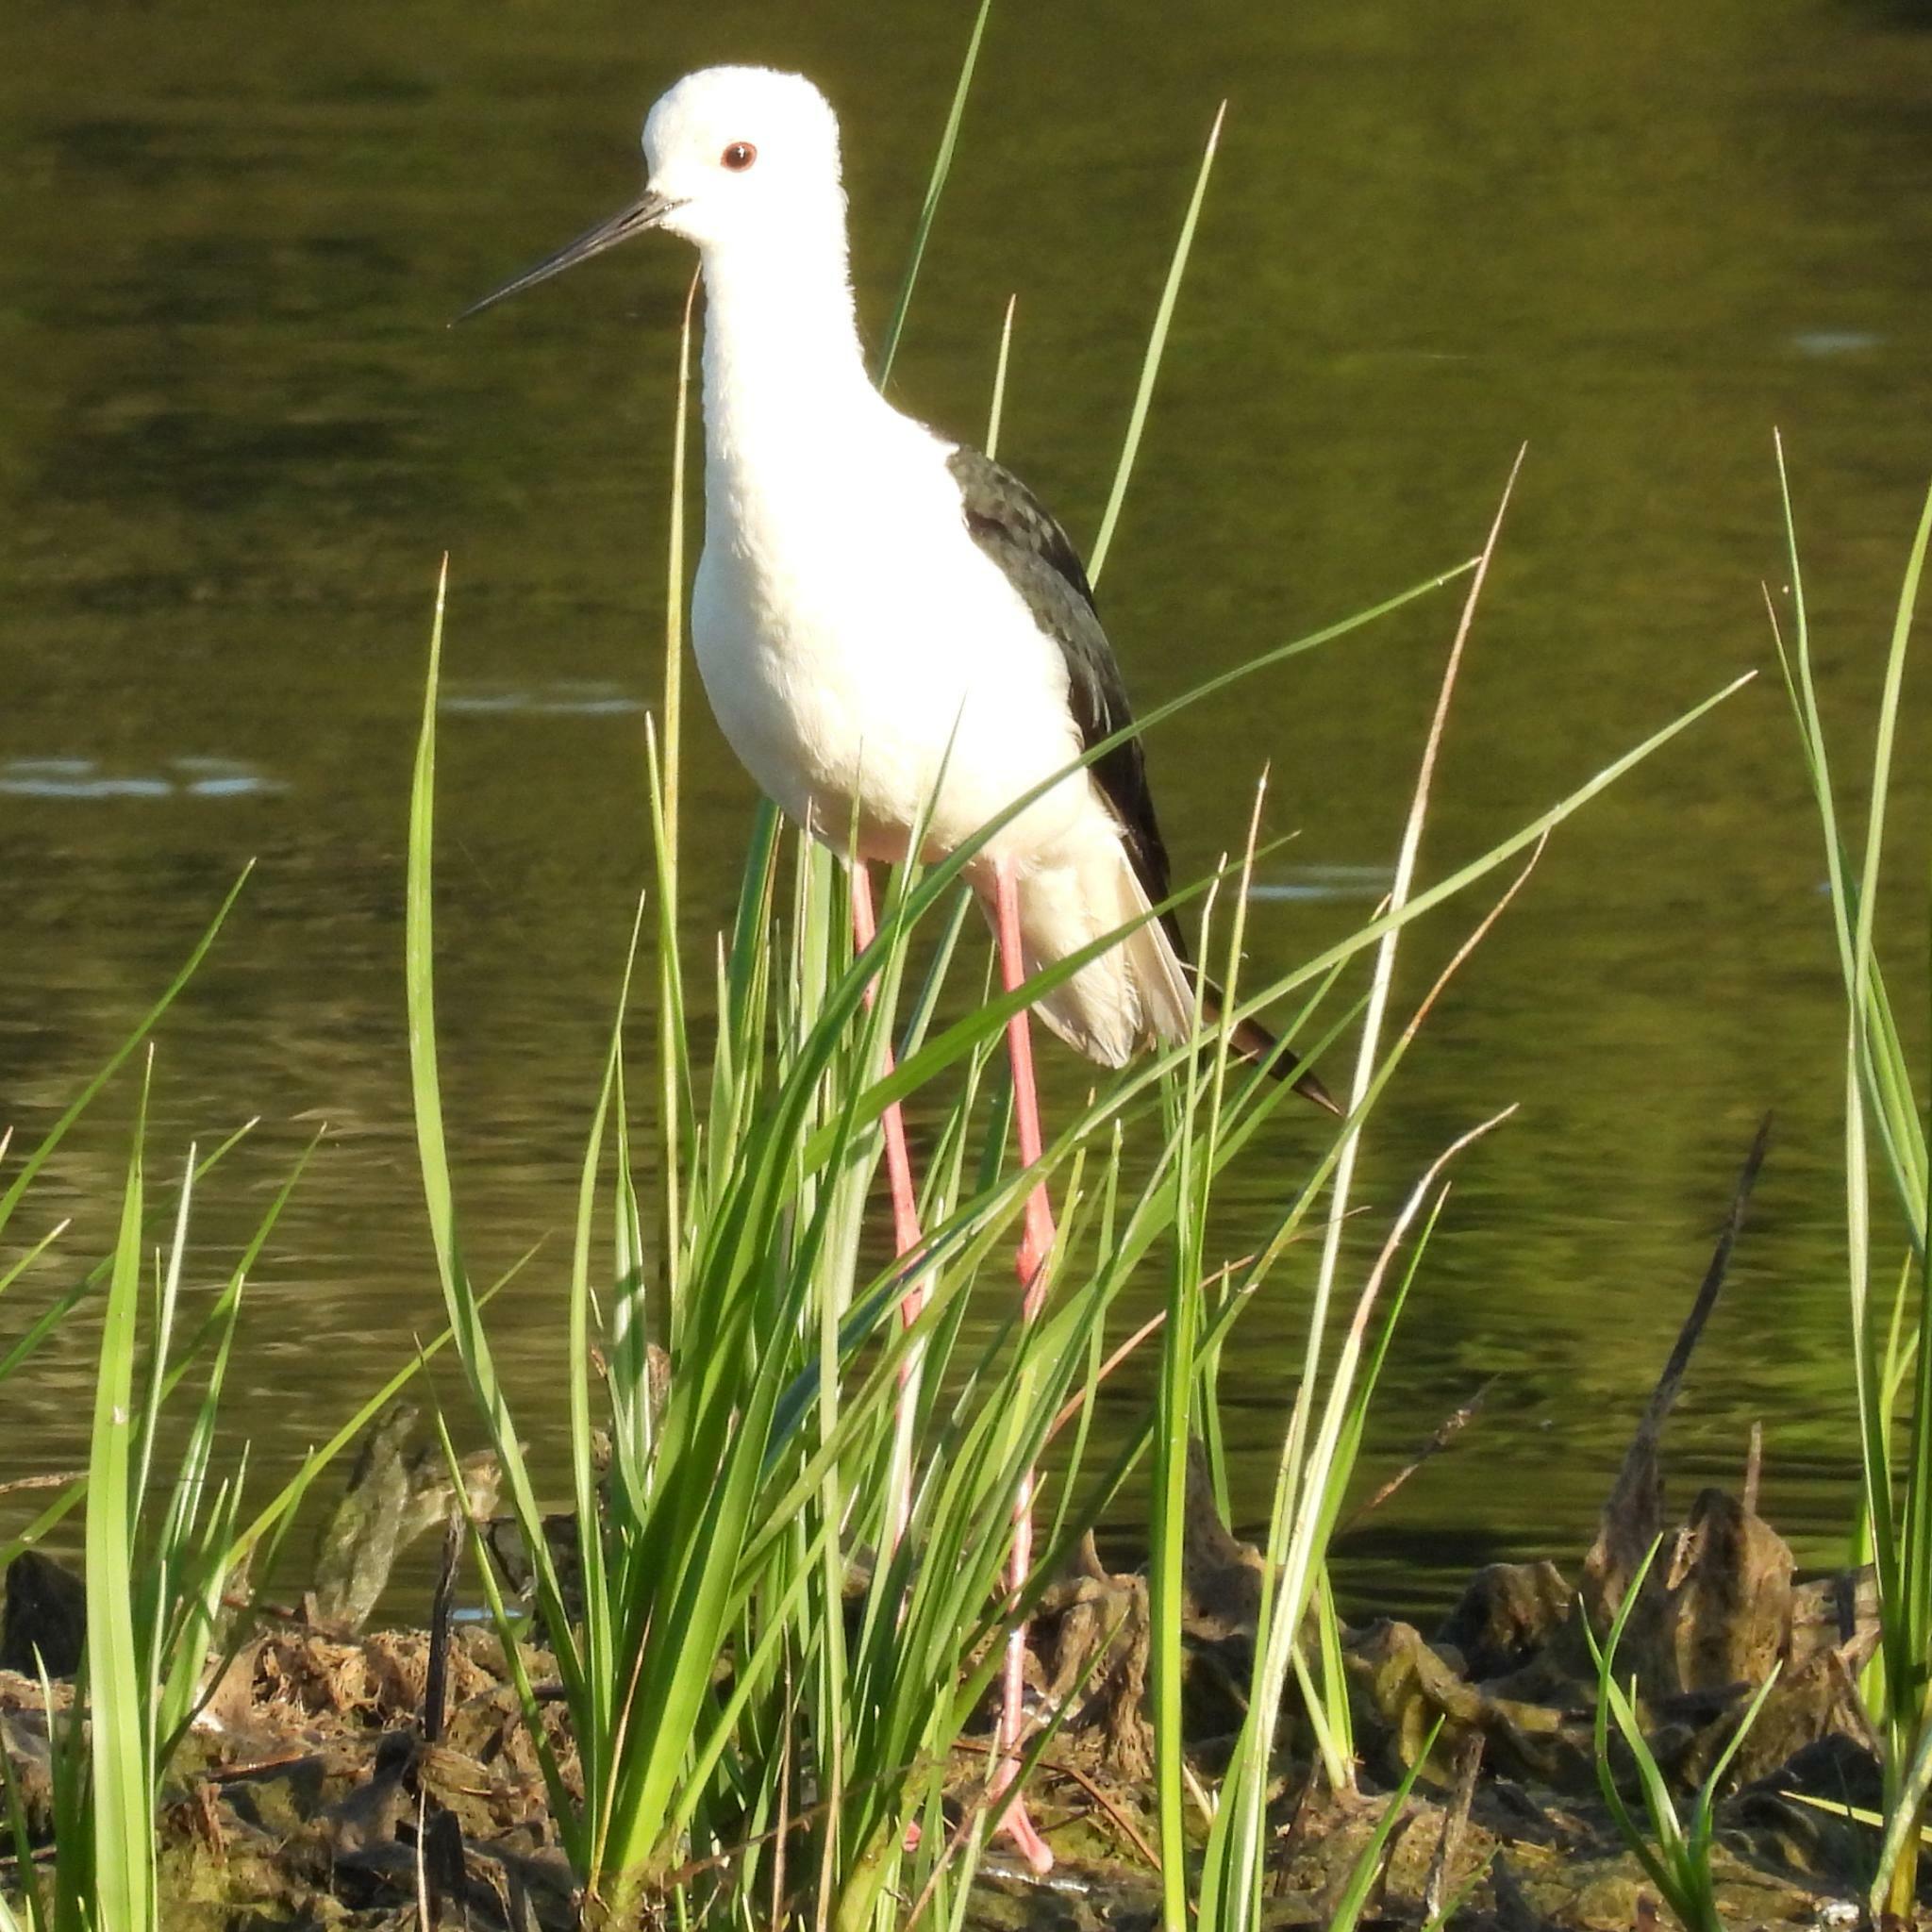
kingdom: Animalia
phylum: Chordata
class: Aves
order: Charadriiformes
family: Recurvirostridae
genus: Himantopus
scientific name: Himantopus himantopus
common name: Black-winged stilt
